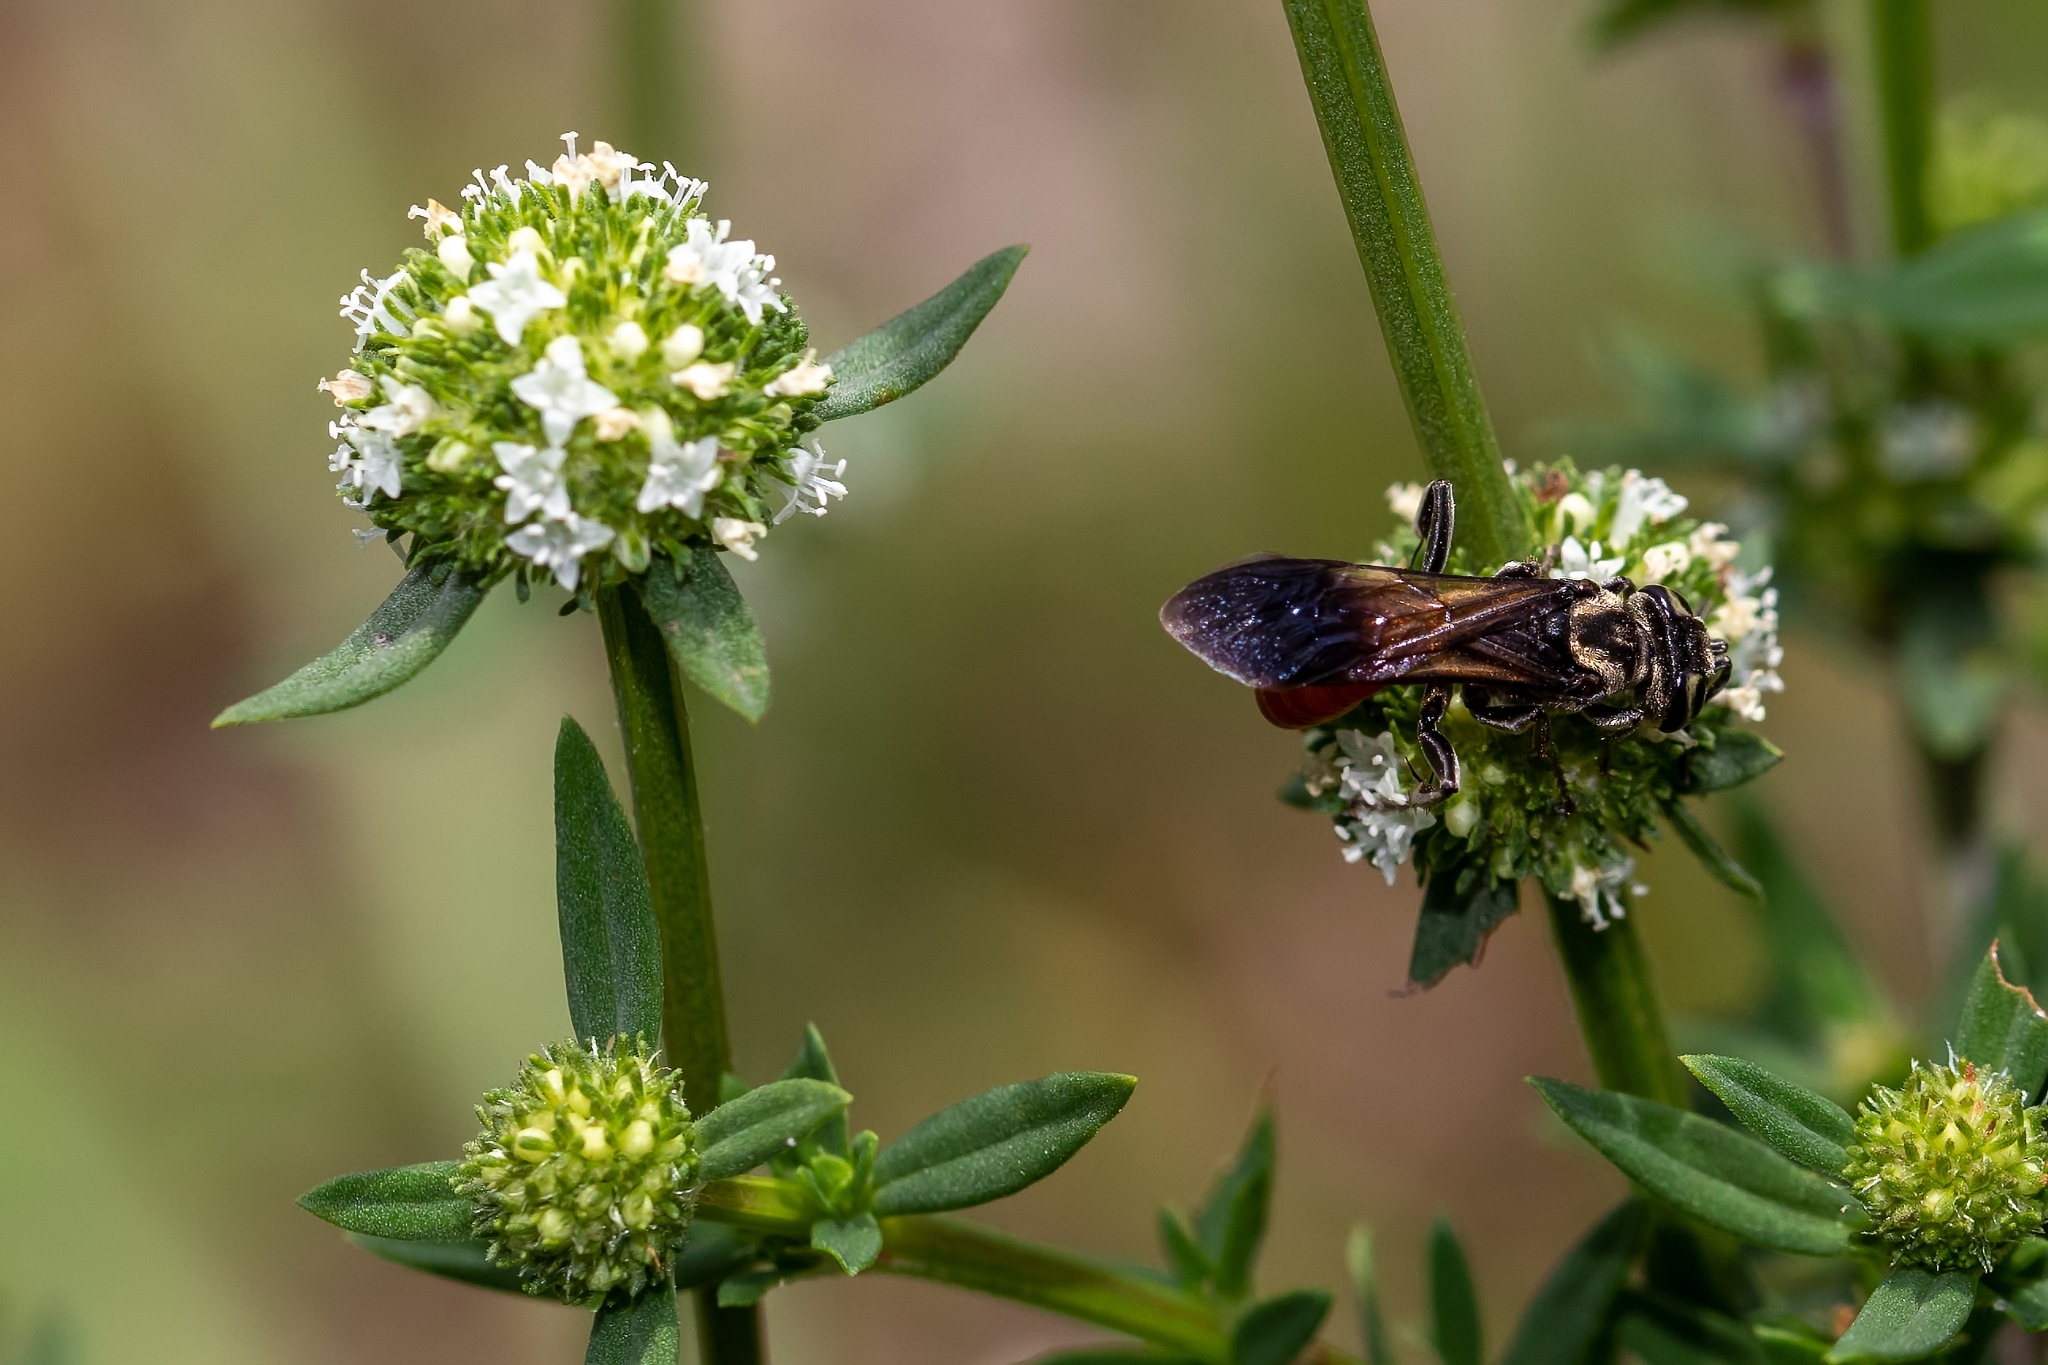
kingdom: Animalia
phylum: Arthropoda
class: Insecta
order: Hymenoptera
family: Crabronidae
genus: Larra
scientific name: Larra bicolor
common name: Wasp
